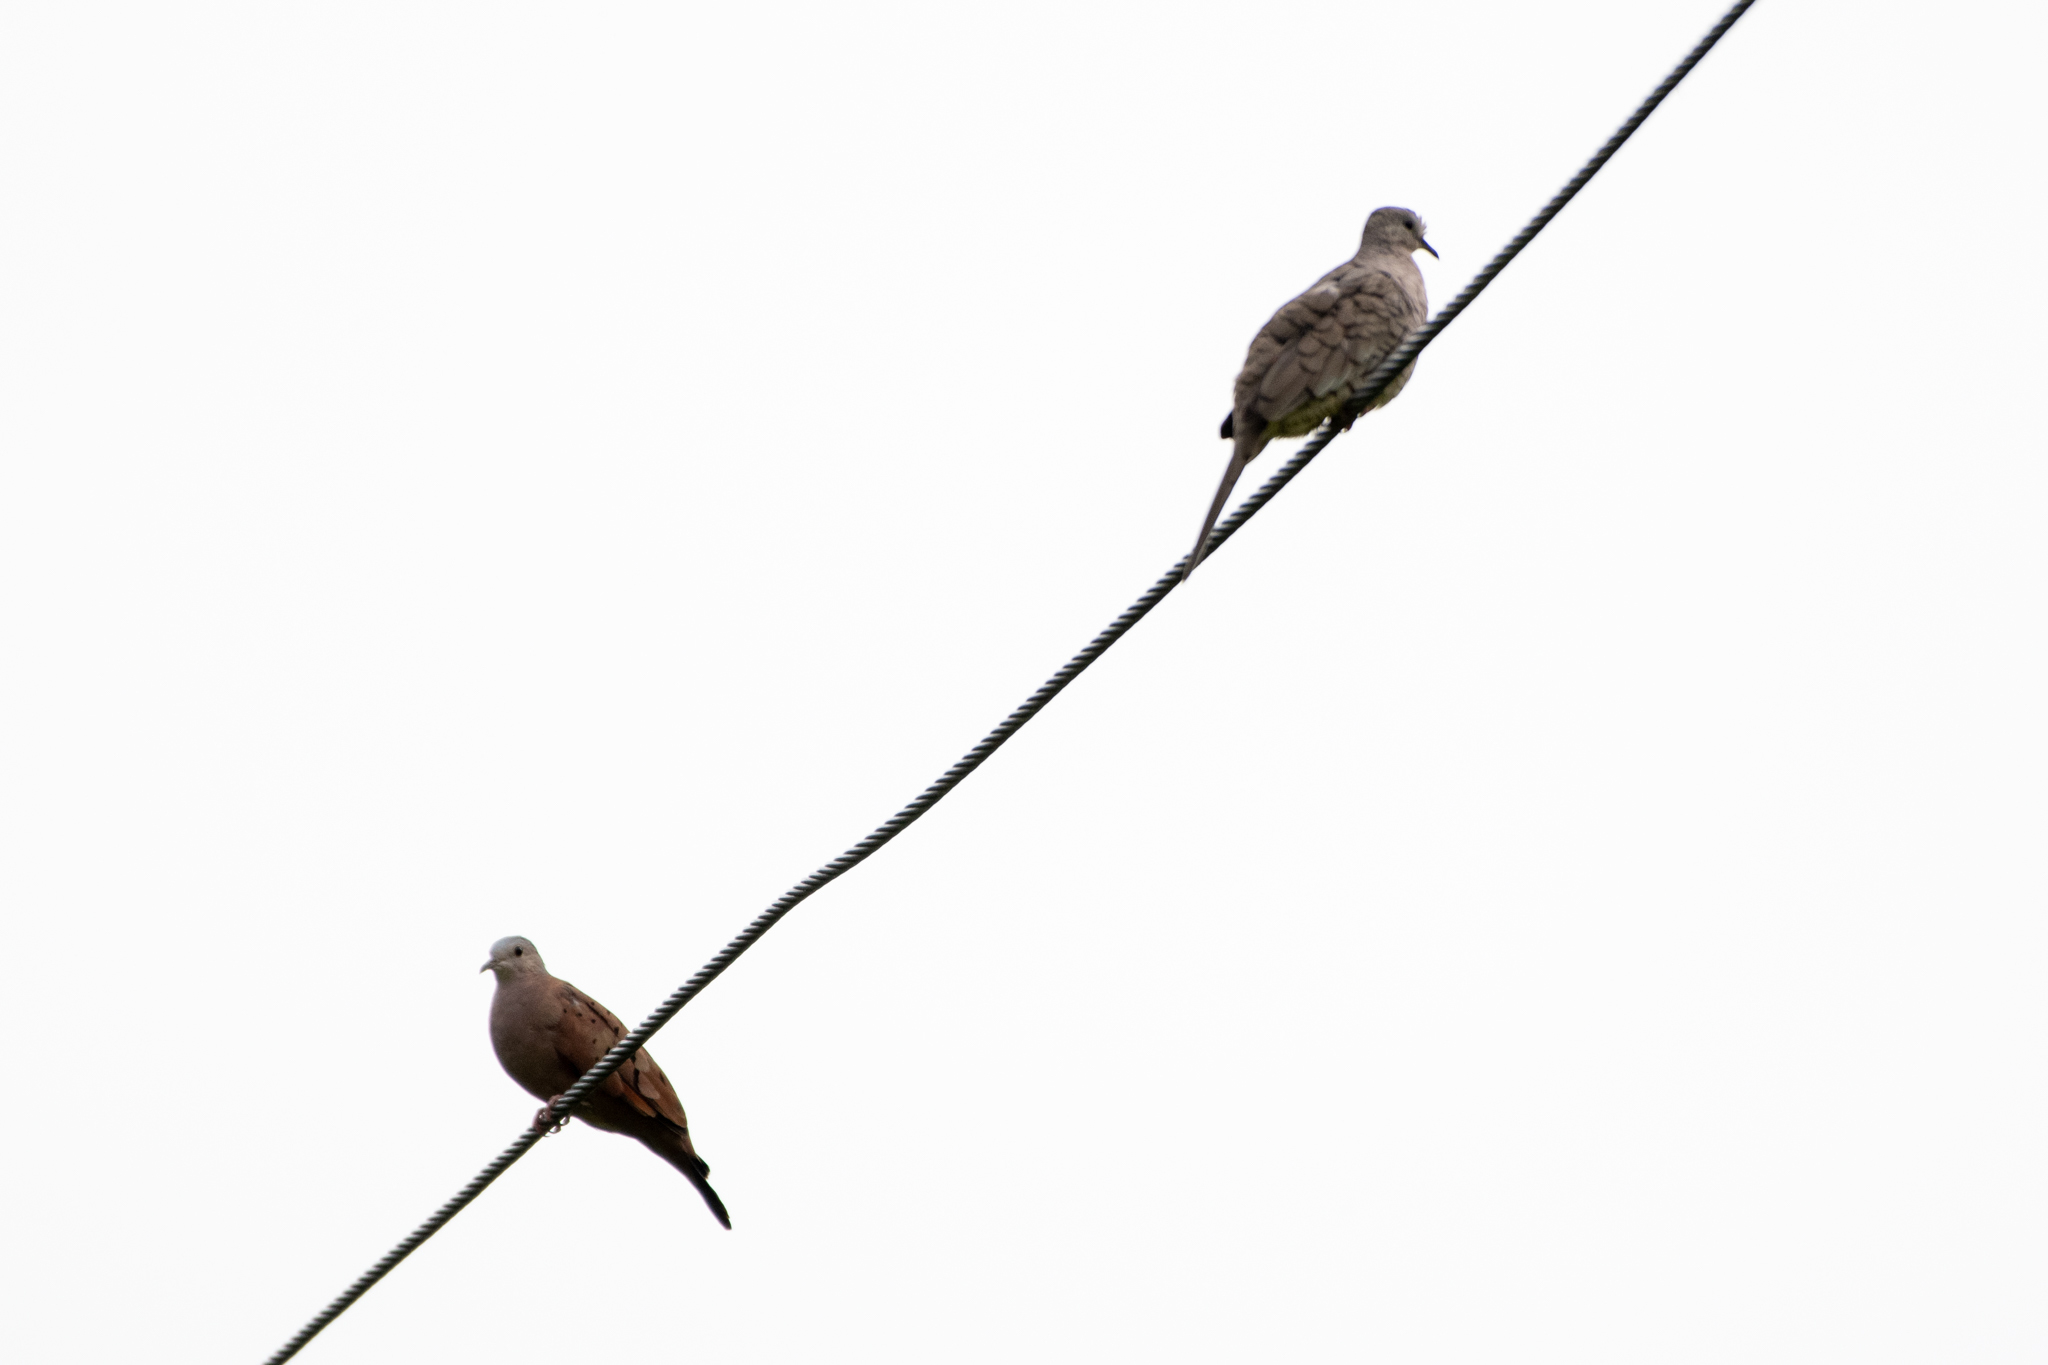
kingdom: Animalia
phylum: Chordata
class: Aves
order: Columbiformes
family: Columbidae
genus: Columbina
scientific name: Columbina talpacoti
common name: Ruddy ground dove
